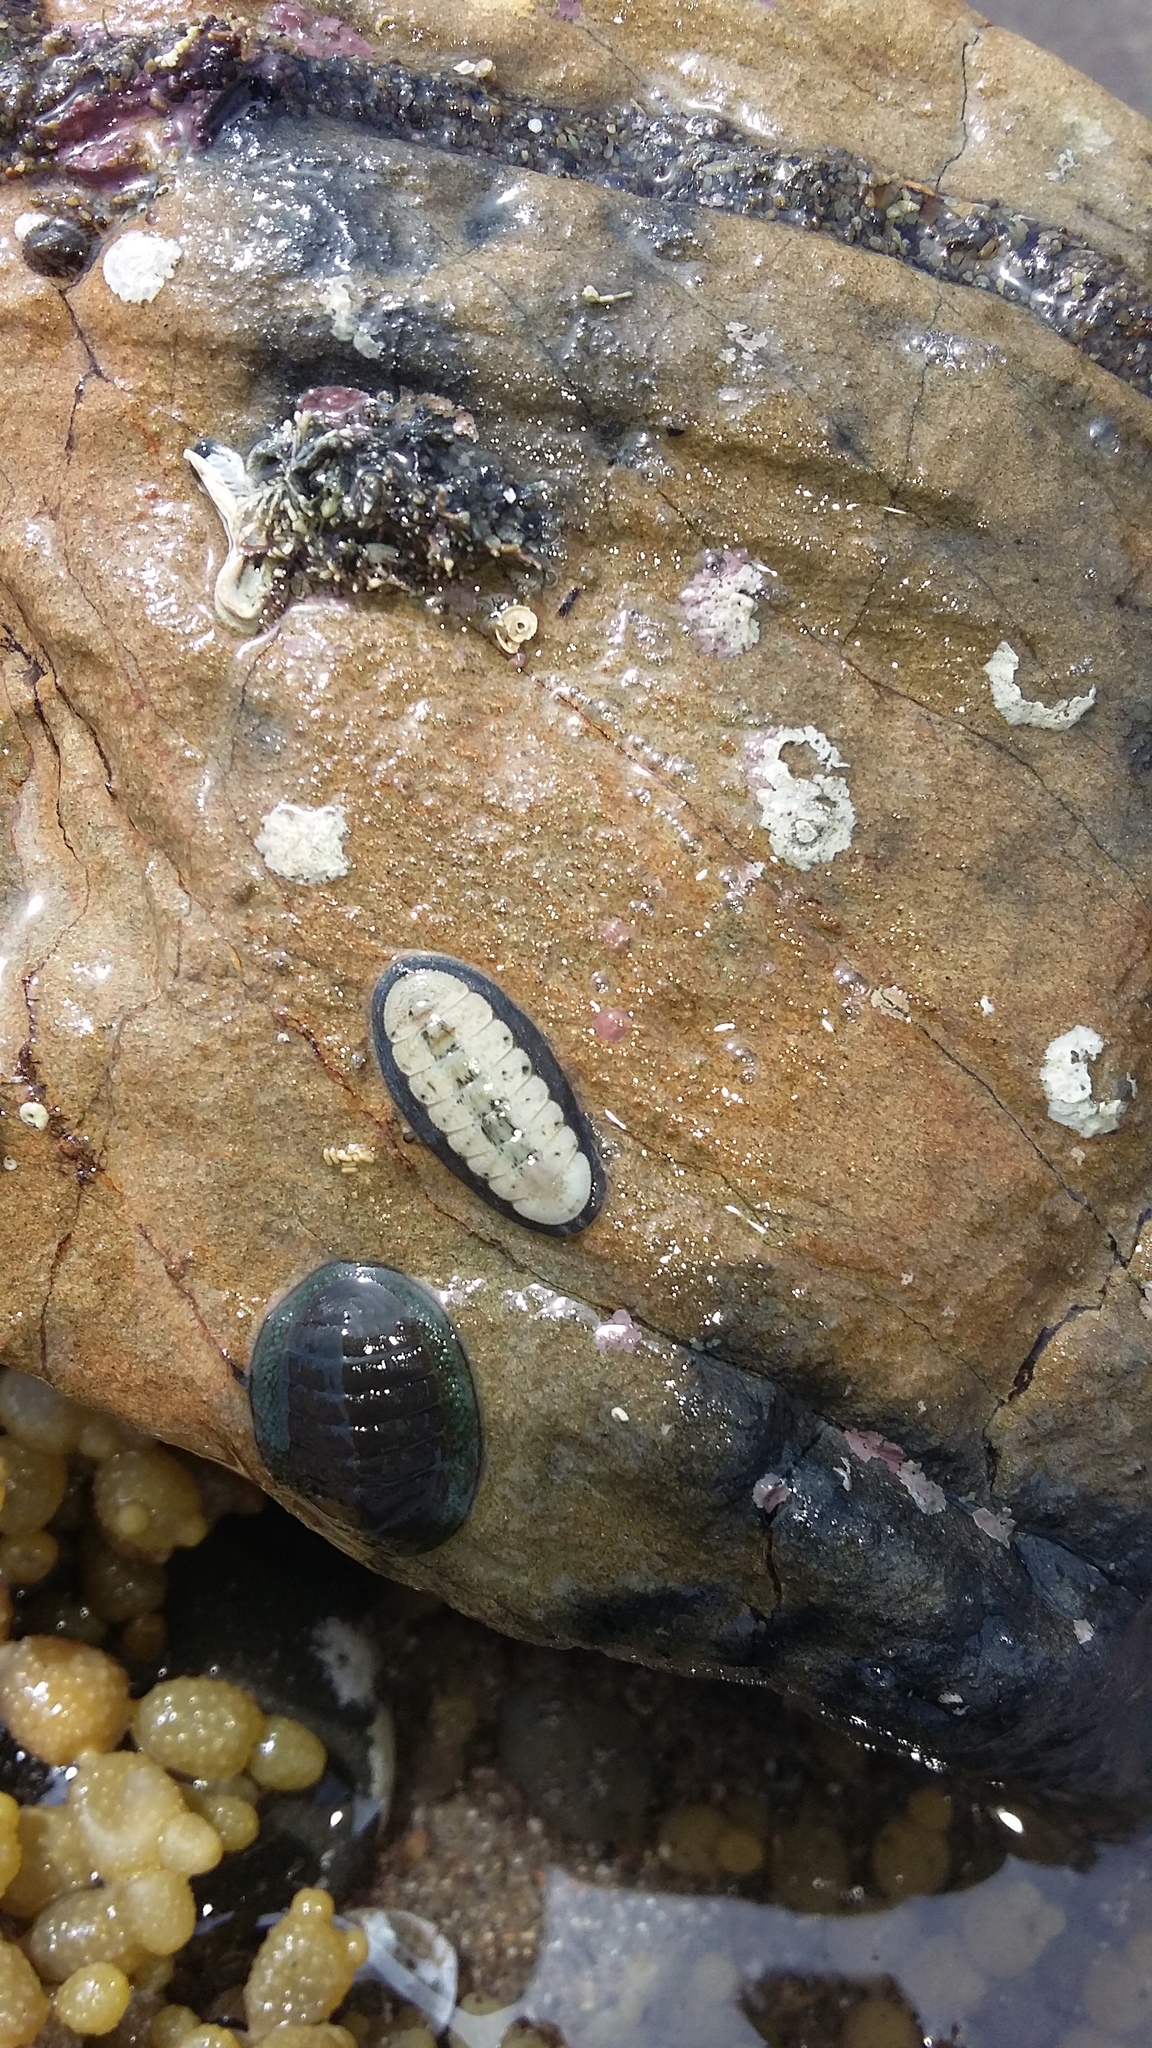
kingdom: Animalia
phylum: Mollusca
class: Polyplacophora
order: Chitonida
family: Ischnochitonidae
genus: Ischnochiton
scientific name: Ischnochiton maorianus
